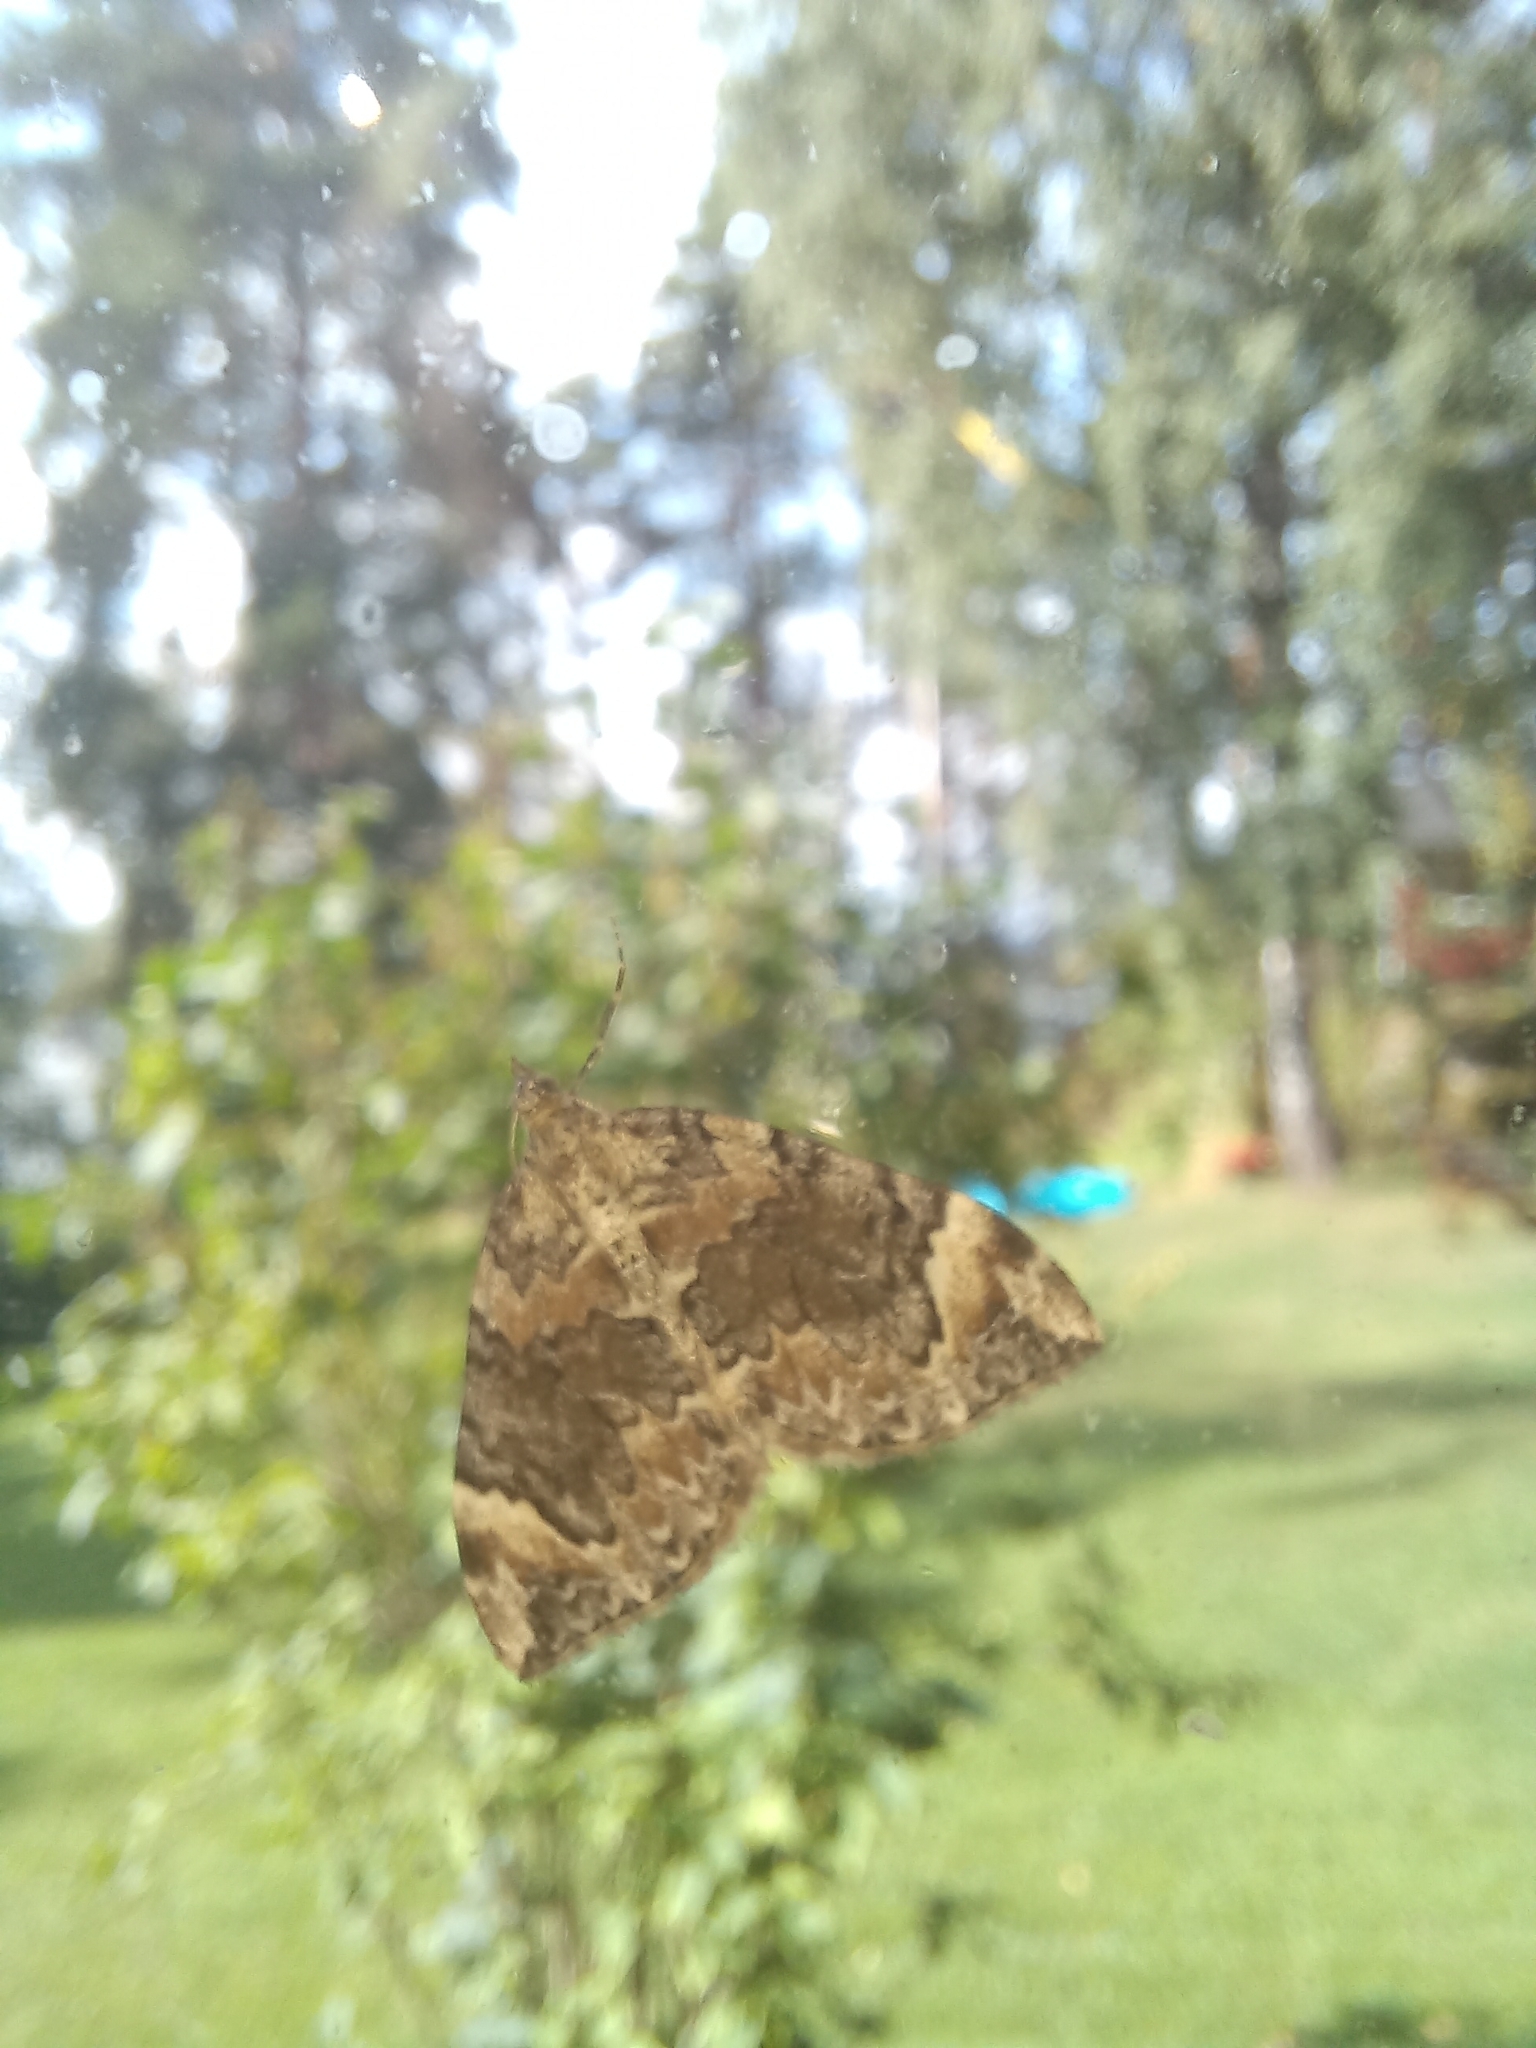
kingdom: Animalia
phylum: Arthropoda
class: Insecta
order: Lepidoptera
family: Geometridae
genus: Dysstroma
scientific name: Dysstroma citrata
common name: Dark marbled carpet
